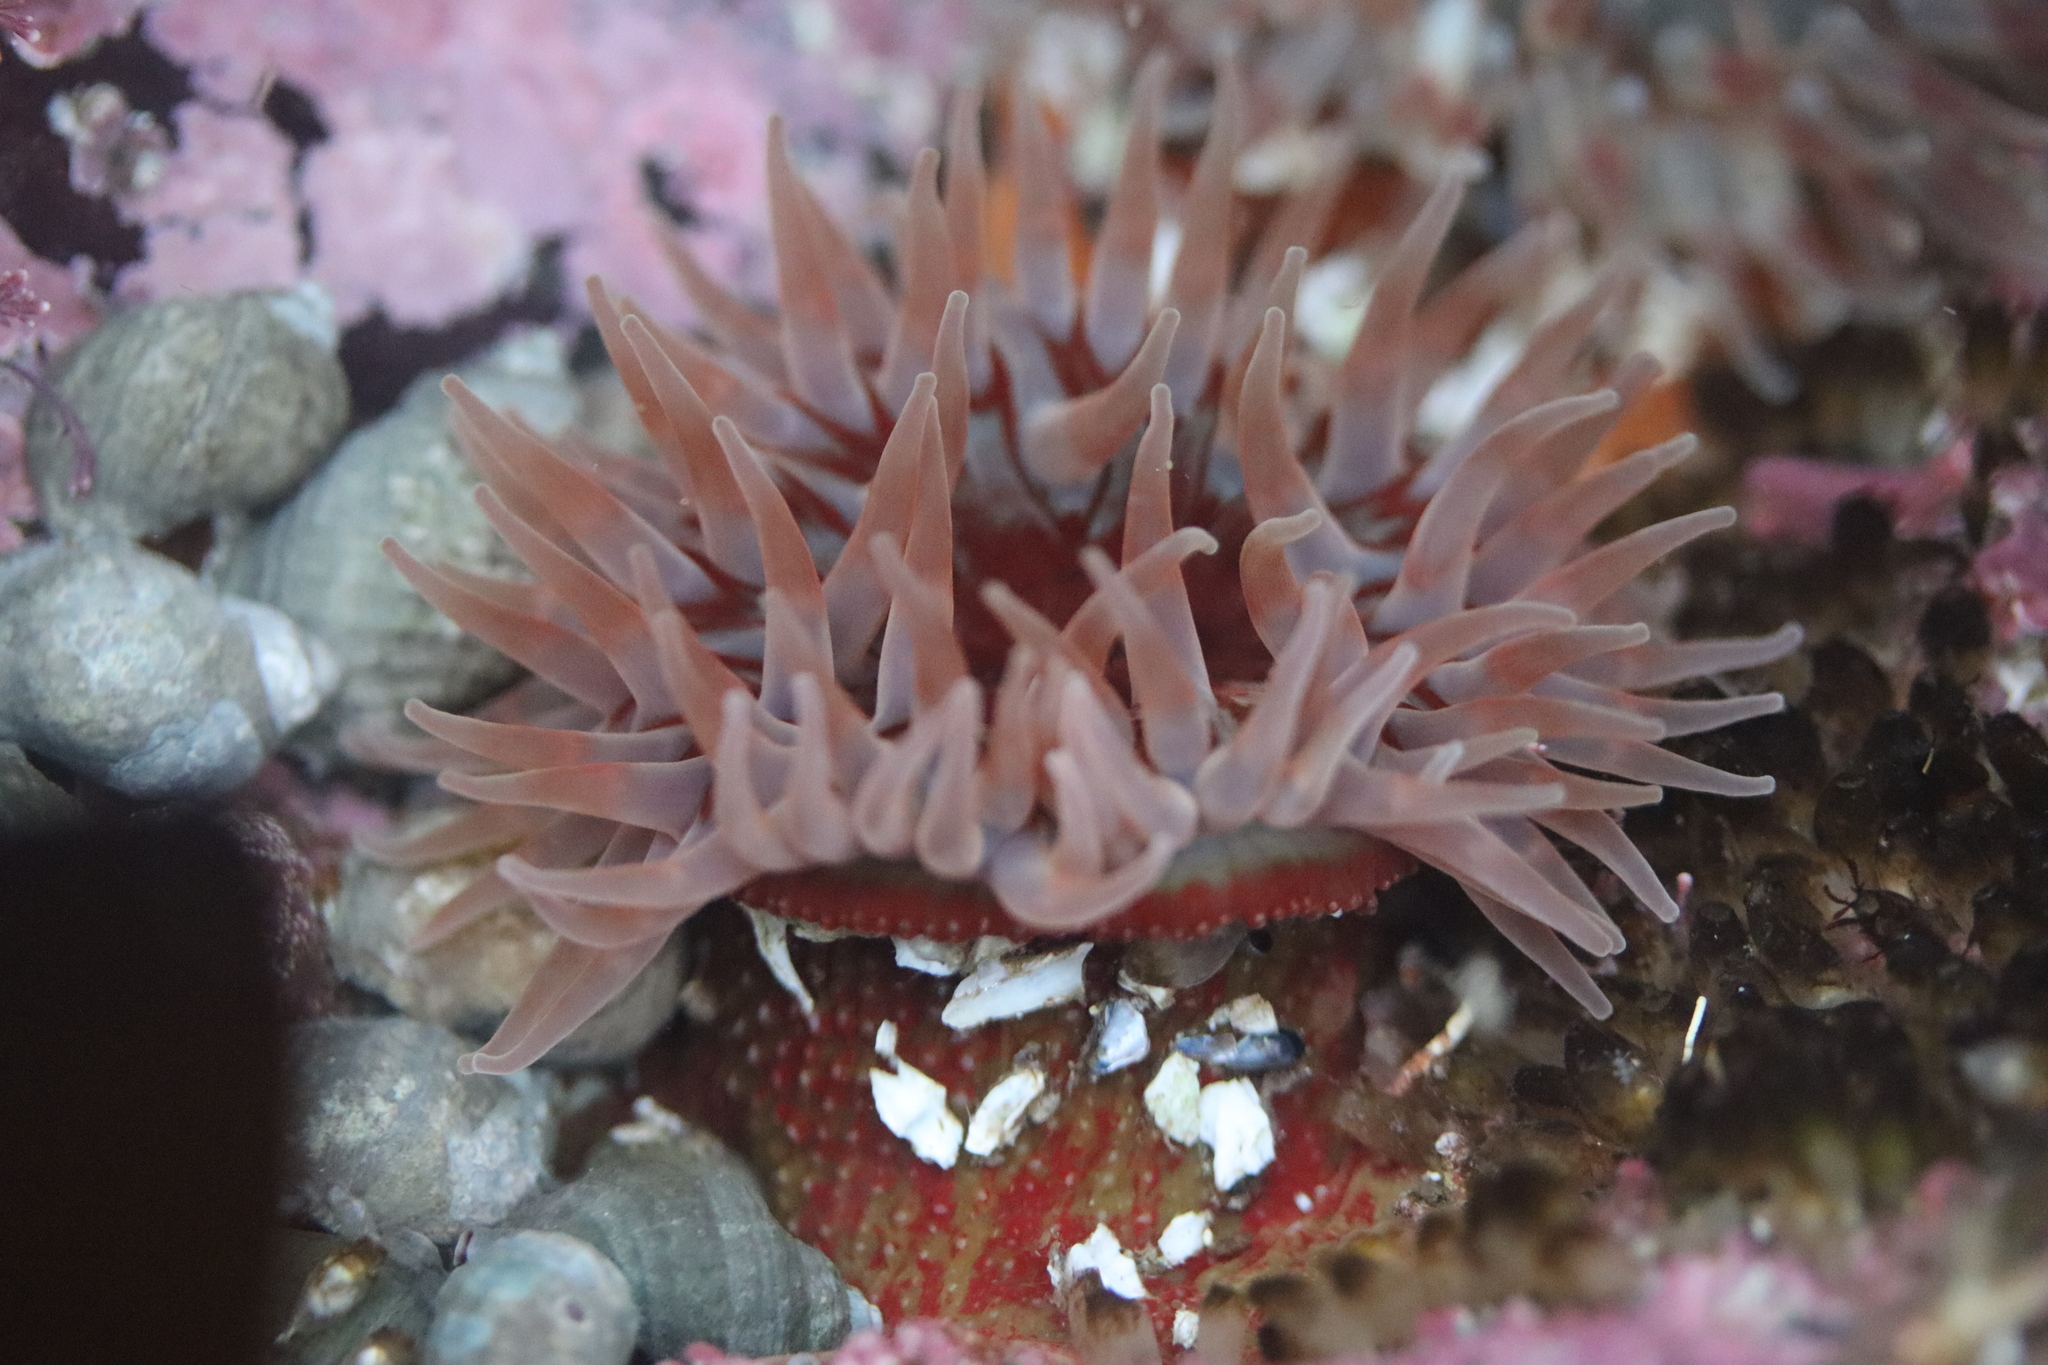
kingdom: Animalia
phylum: Cnidaria
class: Anthozoa
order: Actiniaria
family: Actiniidae
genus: Urticina
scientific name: Urticina felina
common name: Dahlia anemone
